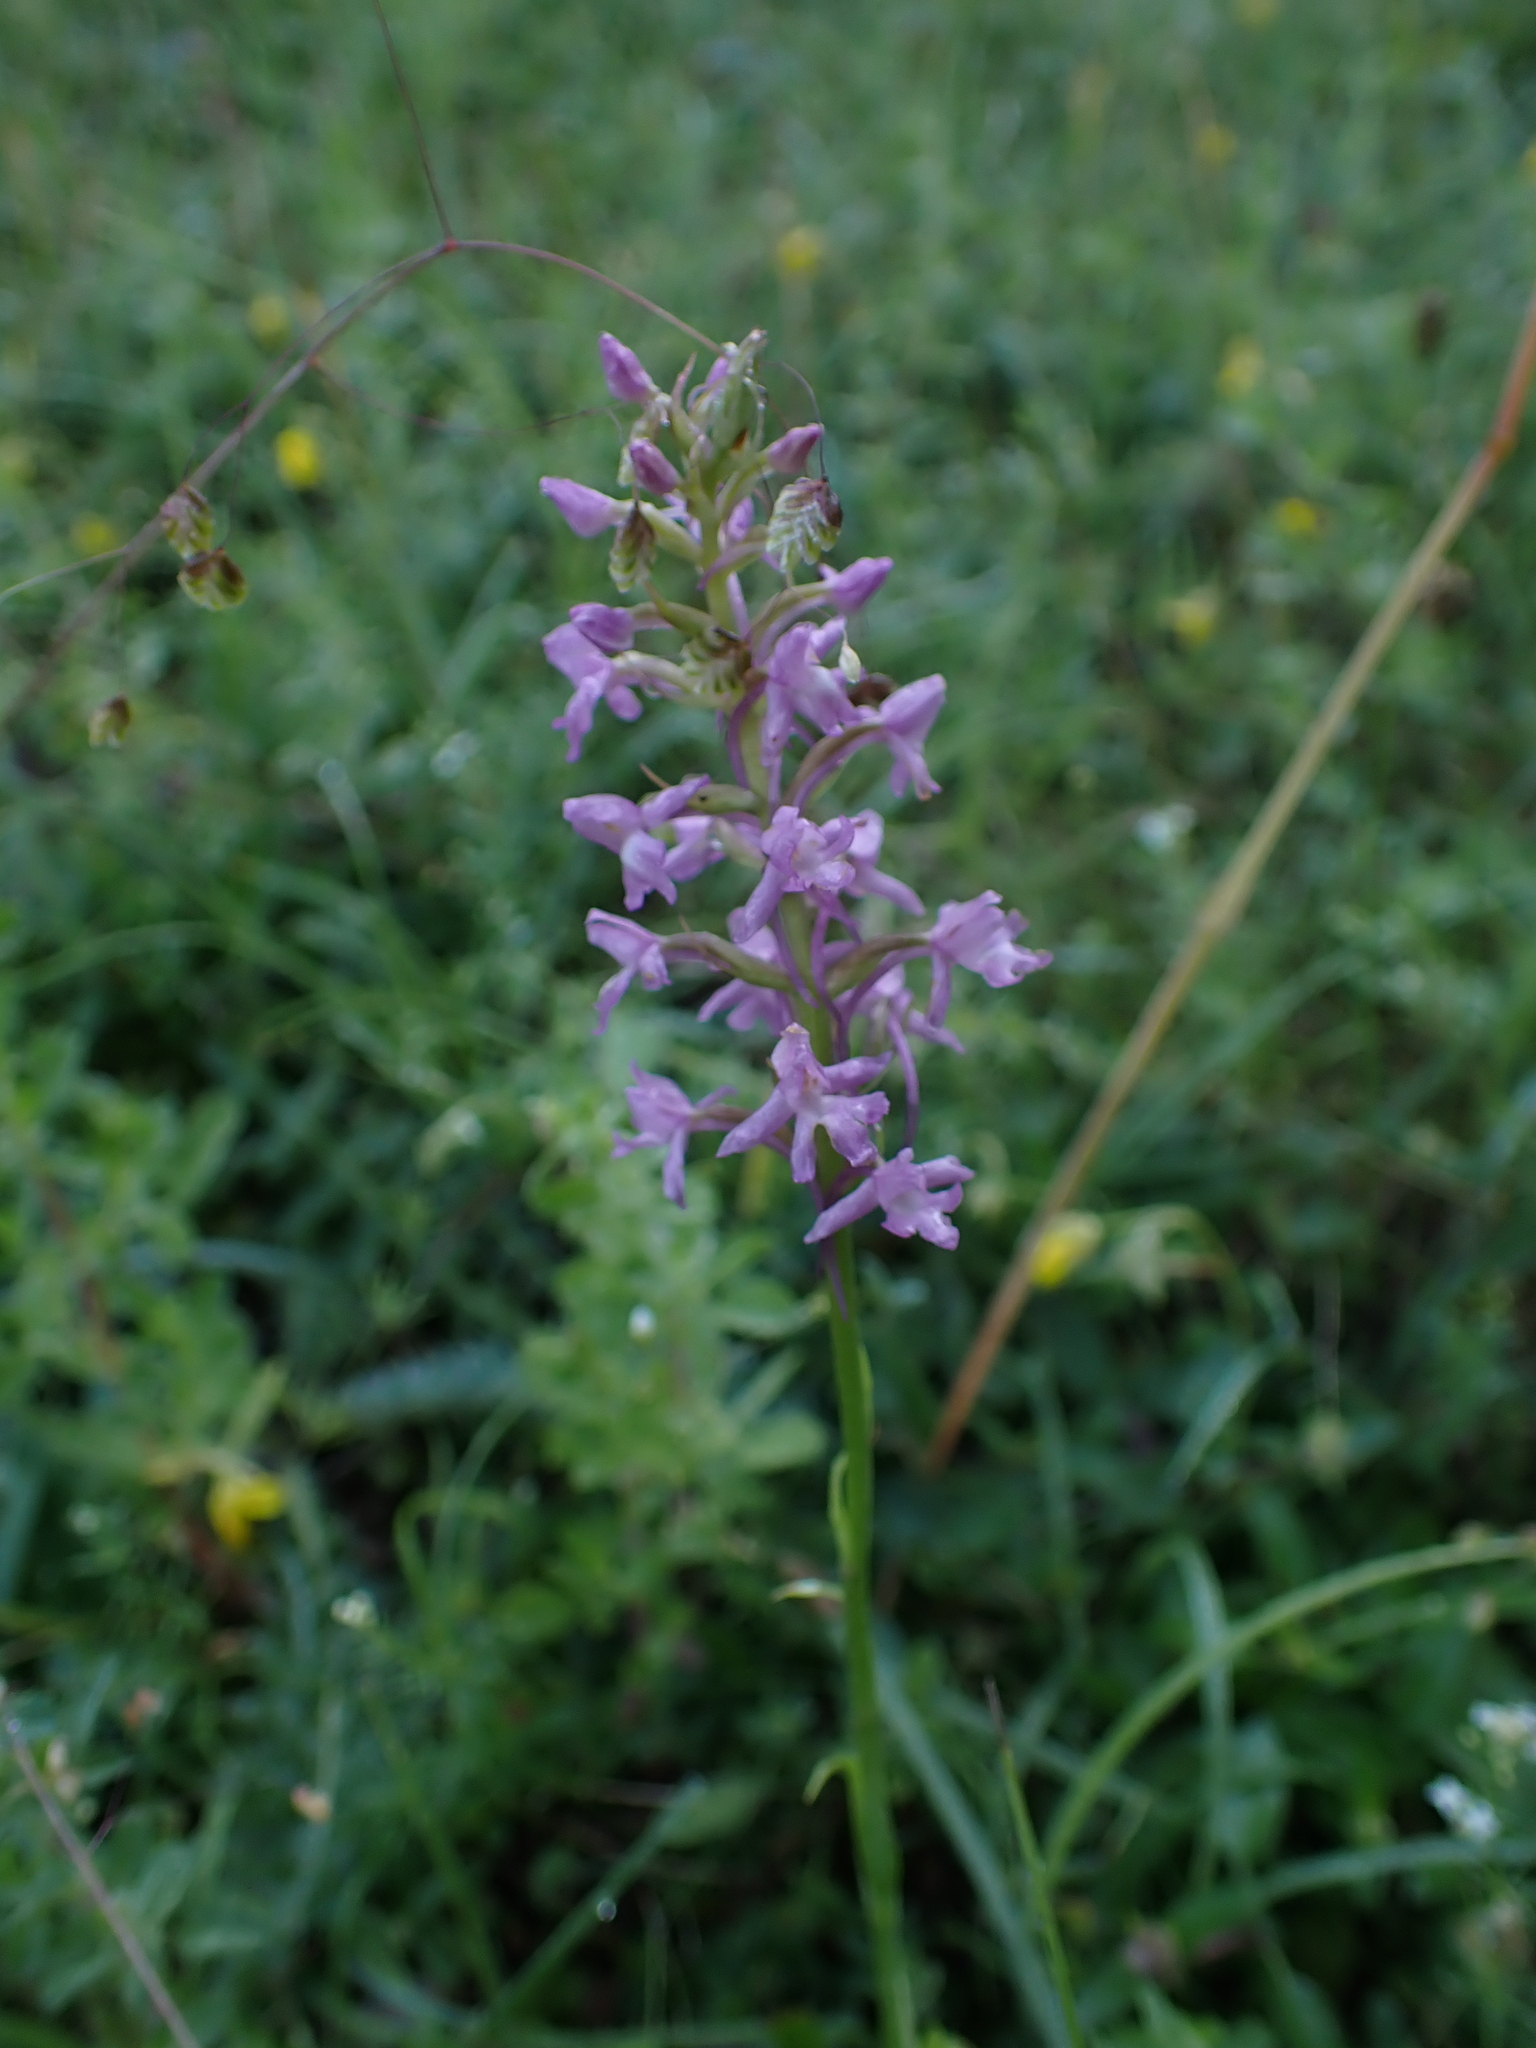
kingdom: Plantae
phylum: Tracheophyta
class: Liliopsida
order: Asparagales
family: Orchidaceae
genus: Gymnadenia
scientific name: Gymnadenia conopsea
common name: Fragrant orchid
